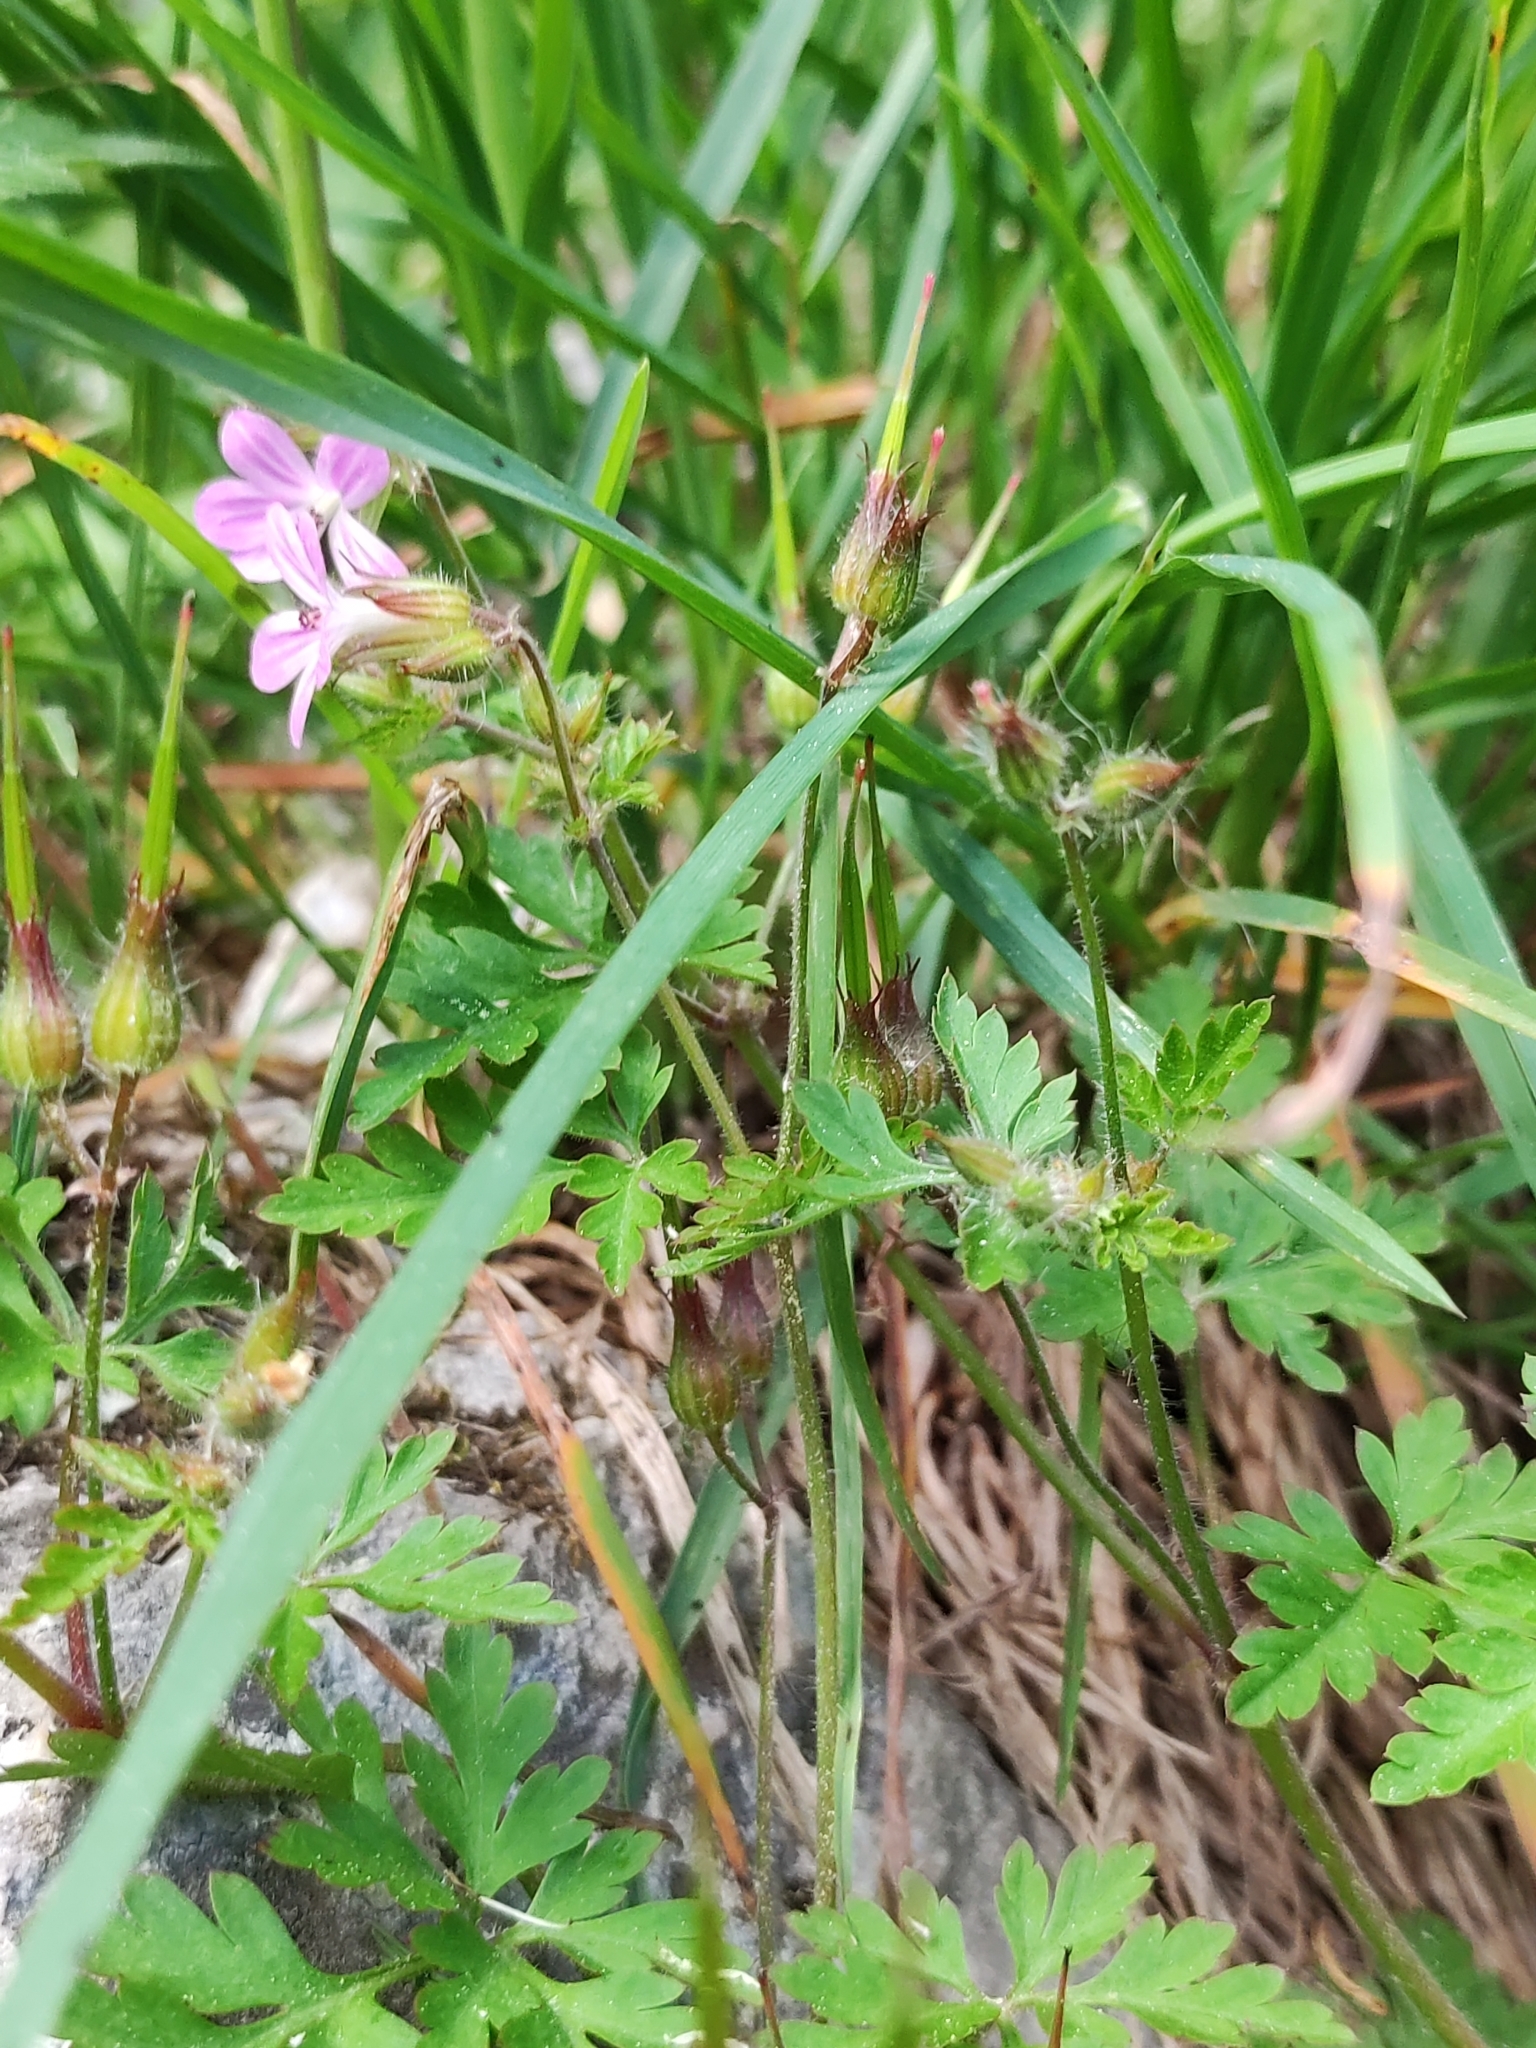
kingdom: Plantae
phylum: Tracheophyta
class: Magnoliopsida
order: Geraniales
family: Geraniaceae
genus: Geranium
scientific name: Geranium purpureum
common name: Little-robin
